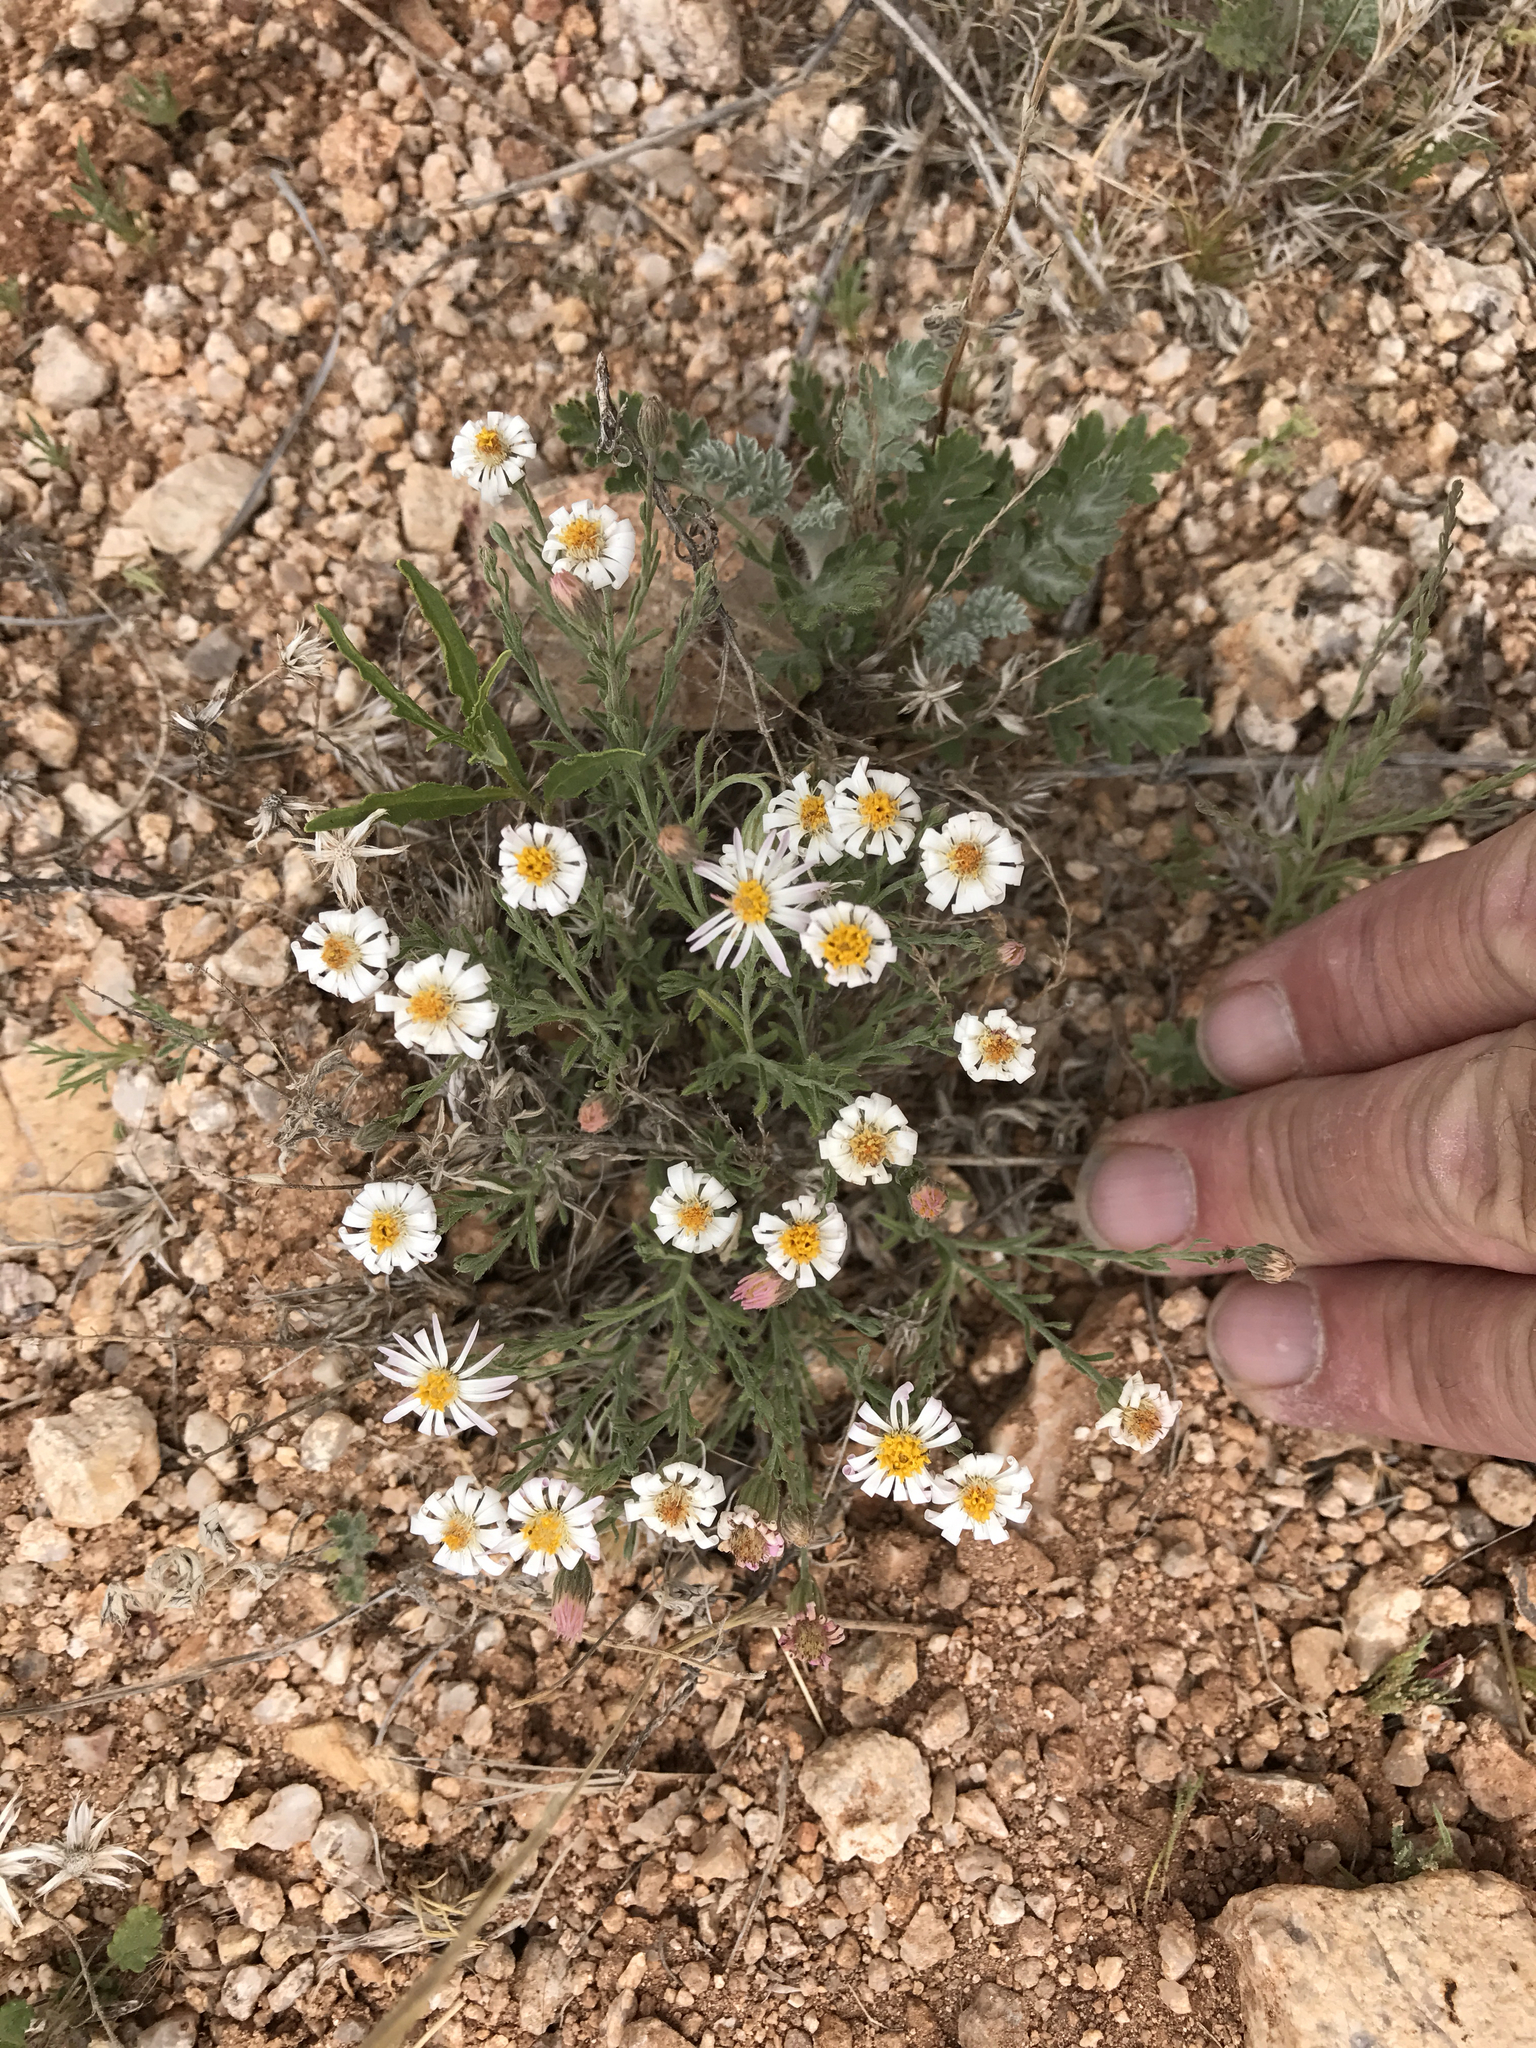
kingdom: Plantae
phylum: Tracheophyta
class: Magnoliopsida
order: Asterales
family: Asteraceae
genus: Melampodium
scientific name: Melampodium leucanthum
